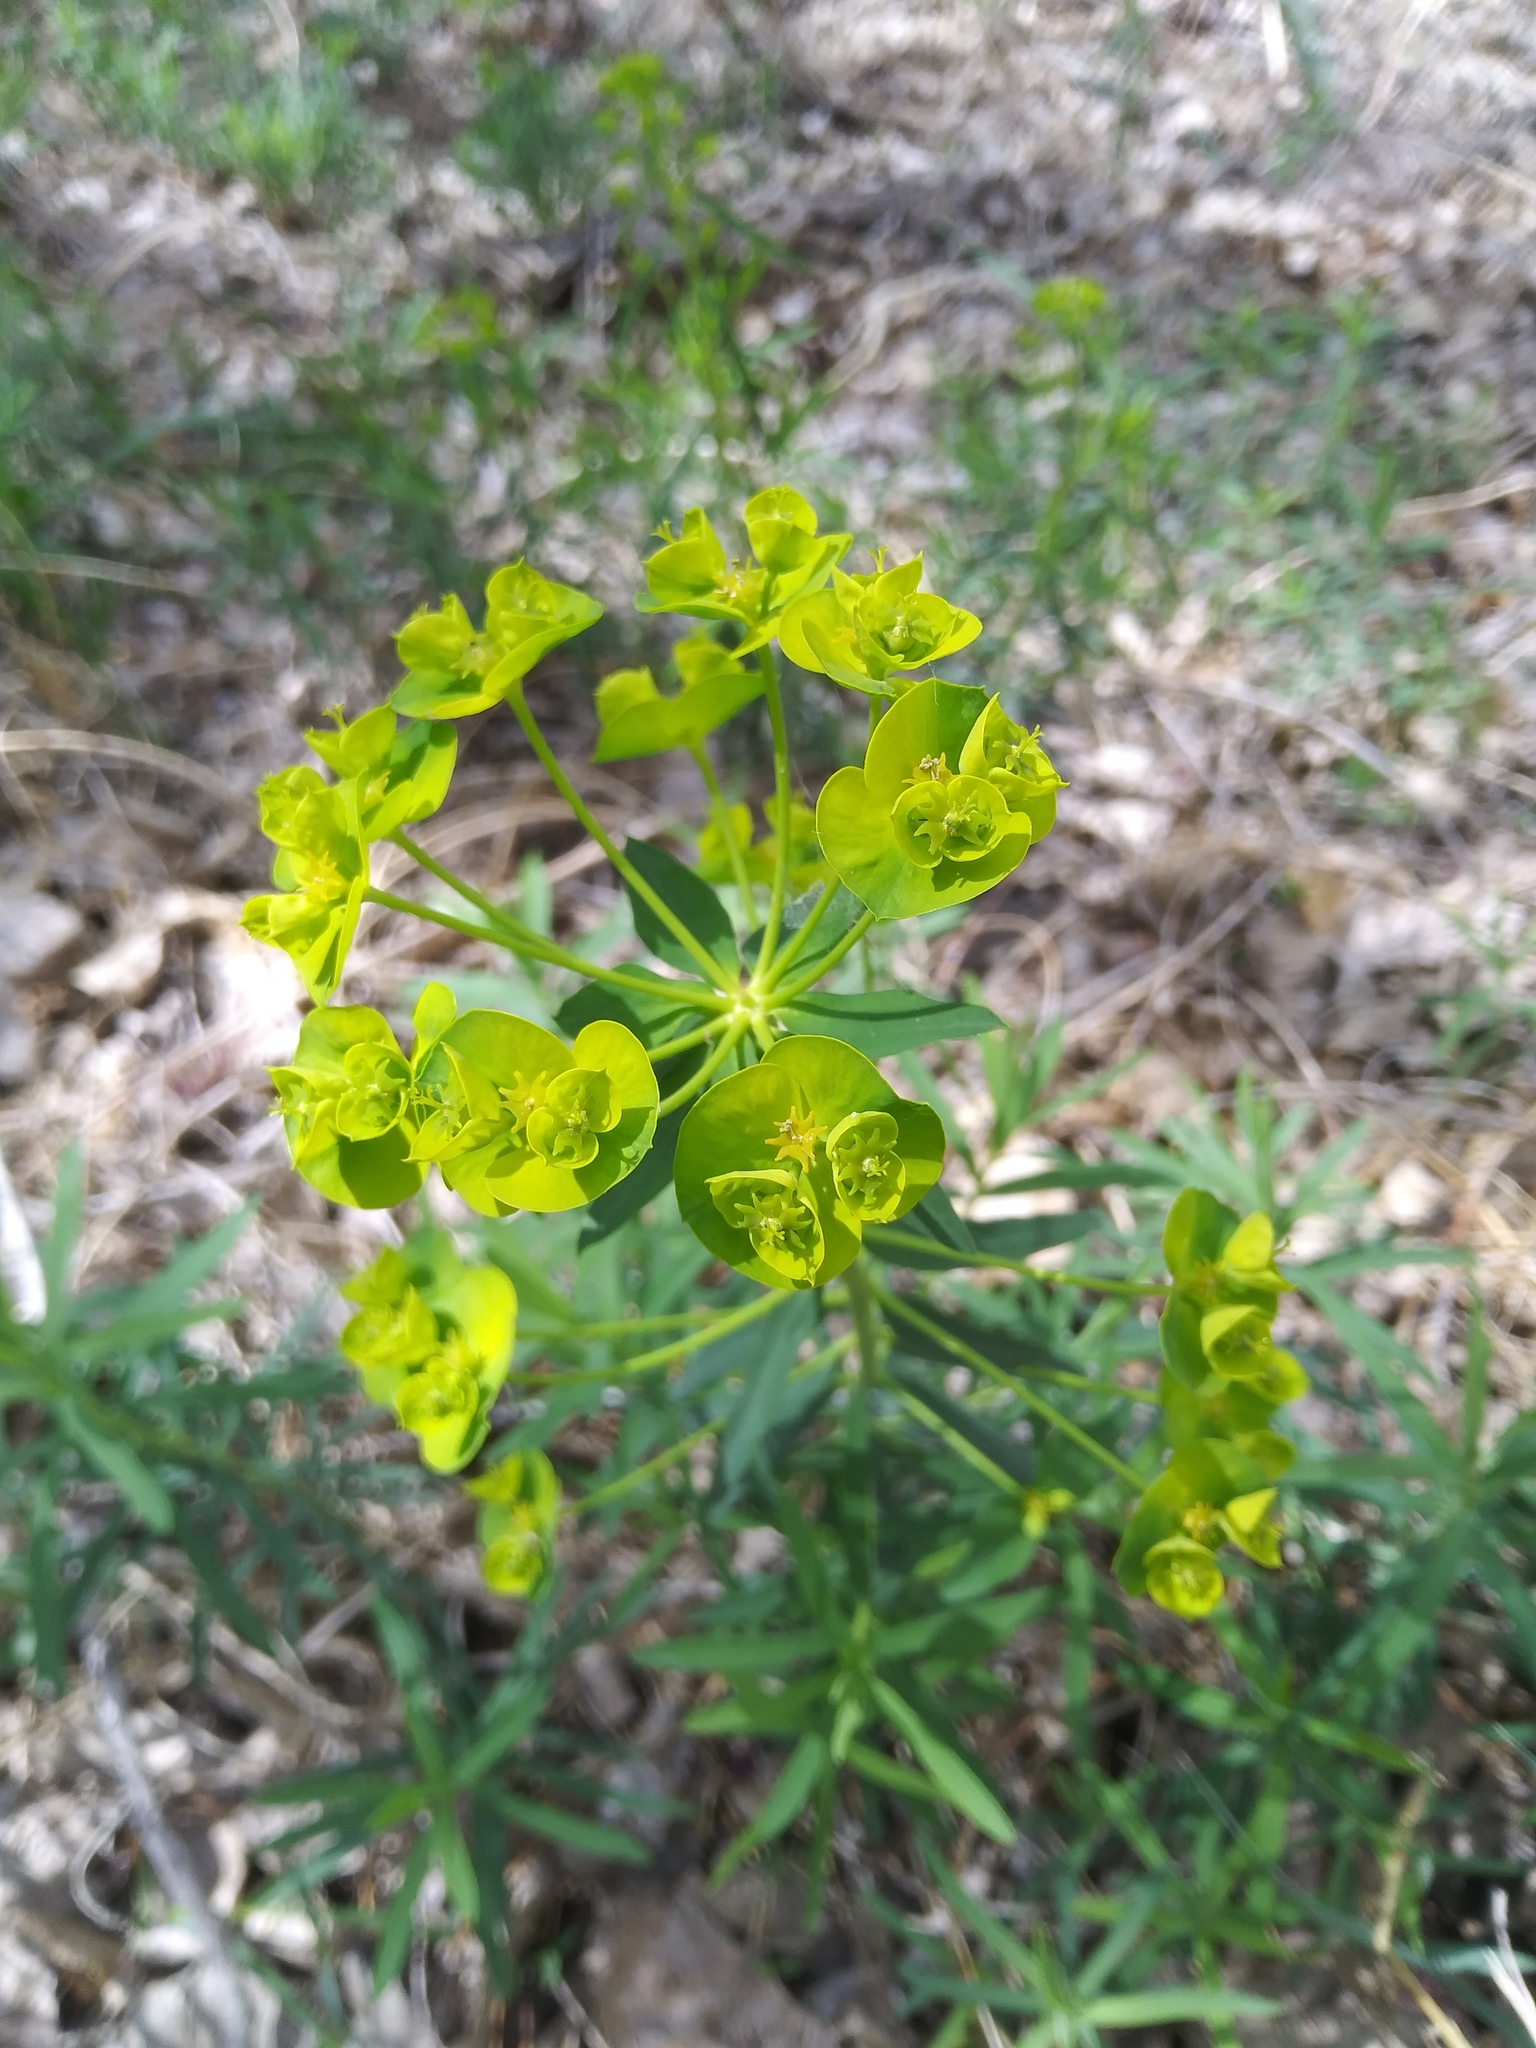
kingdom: Plantae
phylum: Tracheophyta
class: Magnoliopsida
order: Malpighiales
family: Euphorbiaceae
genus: Euphorbia
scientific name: Euphorbia virgata
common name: Leafy spurge
